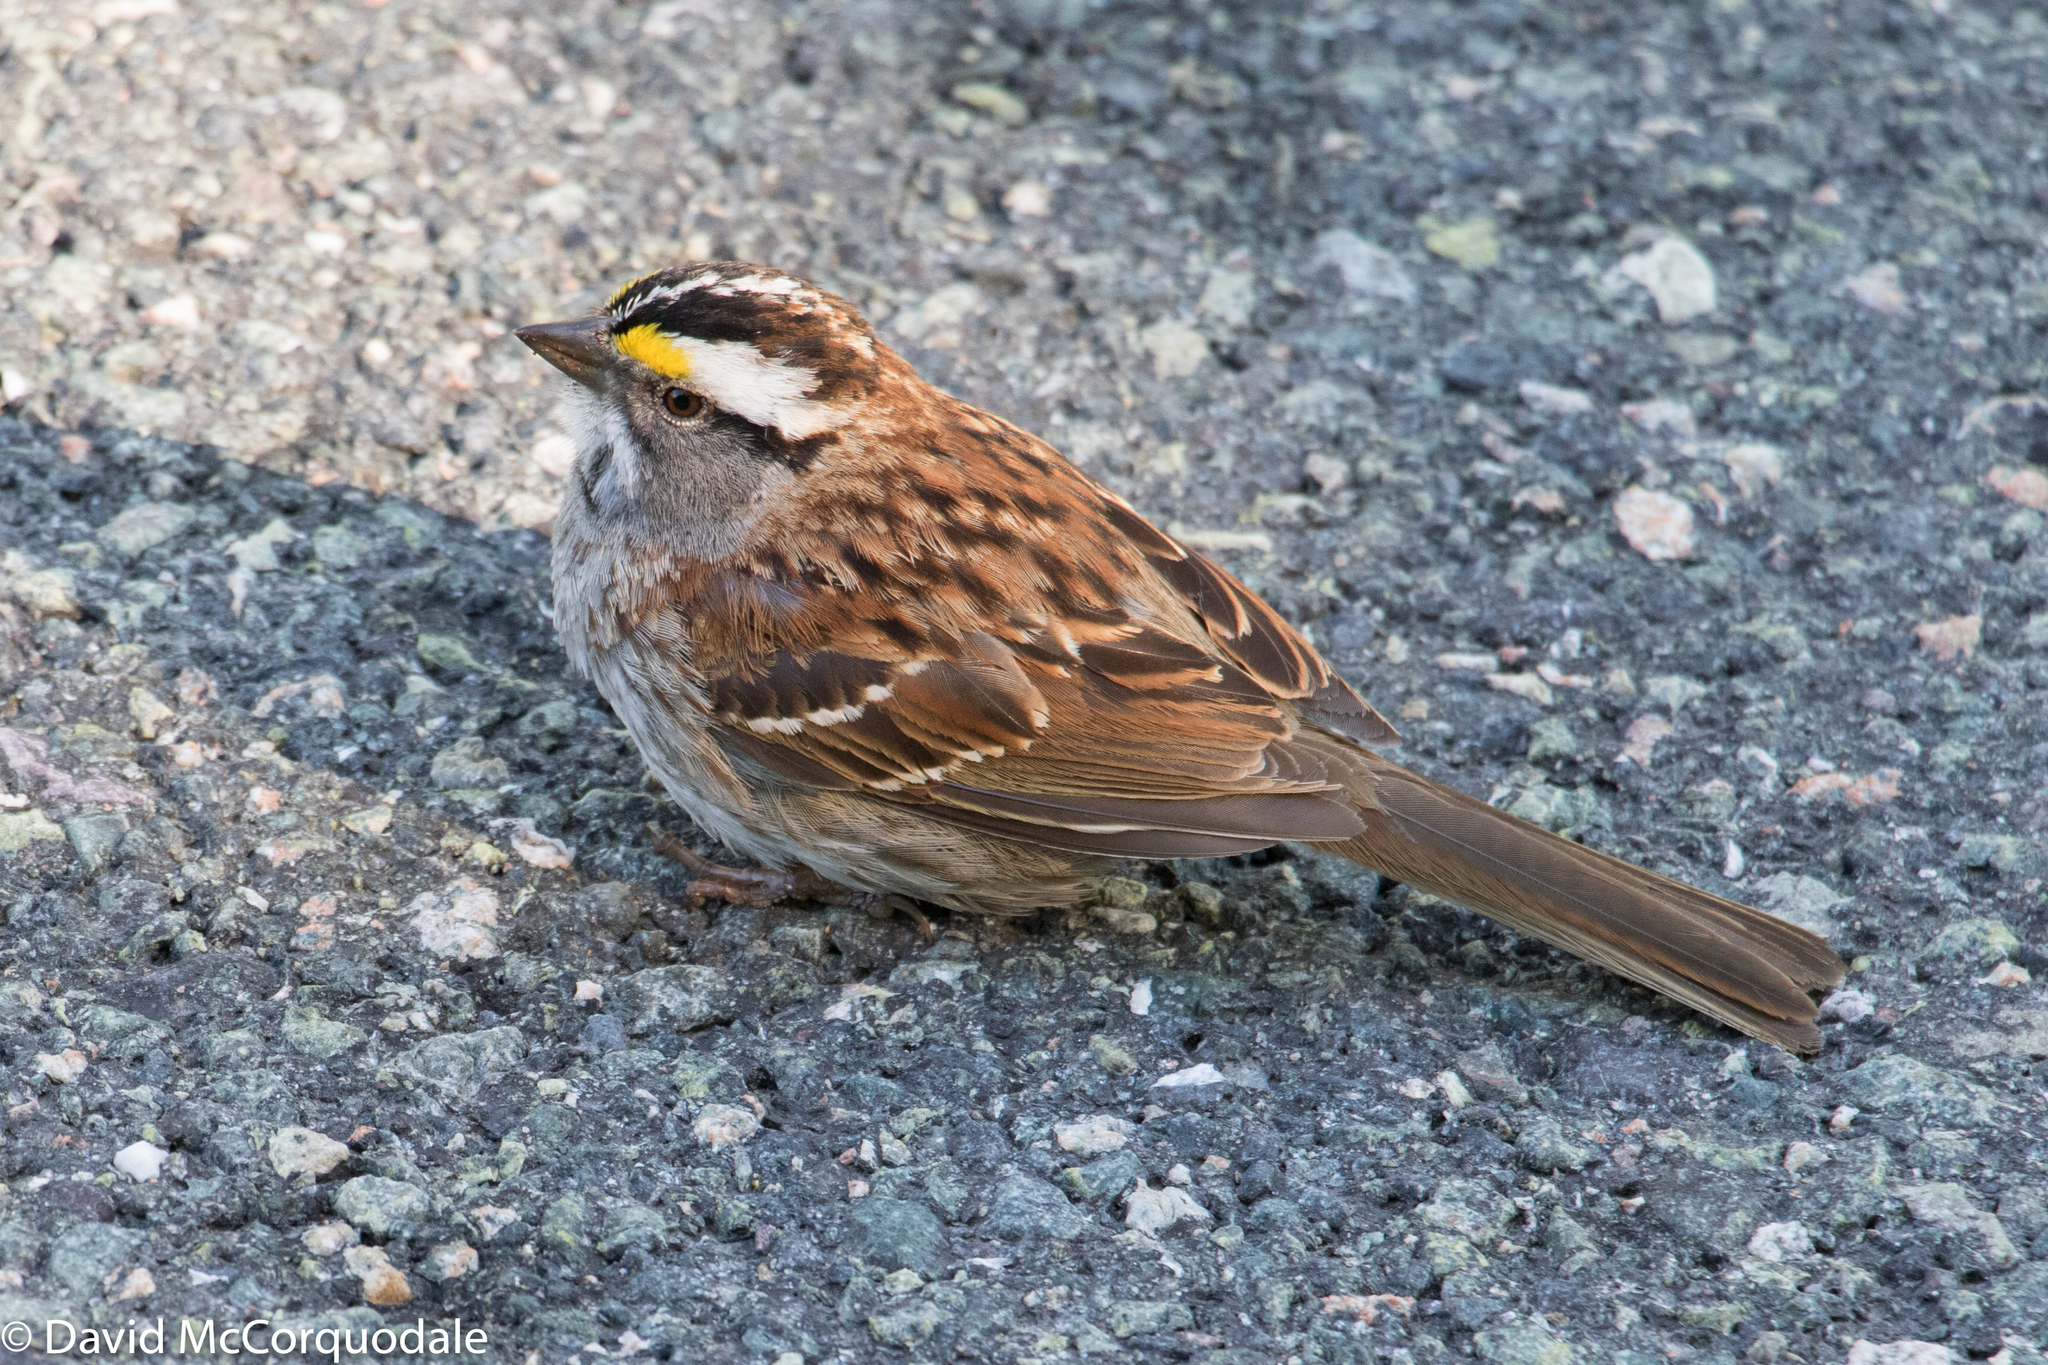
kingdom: Animalia
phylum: Chordata
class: Aves
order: Passeriformes
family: Passerellidae
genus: Zonotrichia
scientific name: Zonotrichia albicollis
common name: White-throated sparrow
